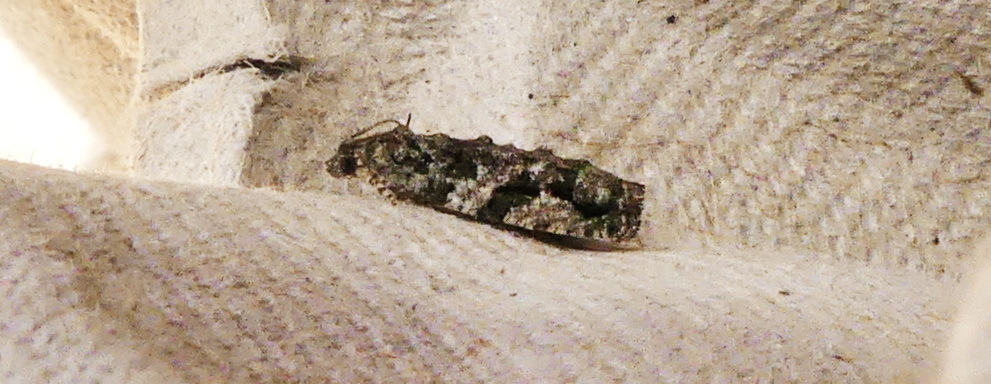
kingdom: Animalia
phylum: Arthropoda
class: Insecta
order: Lepidoptera
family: Tortricidae
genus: Proteoteras
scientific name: Proteoteras aesculana
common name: Maple twig borer moth
